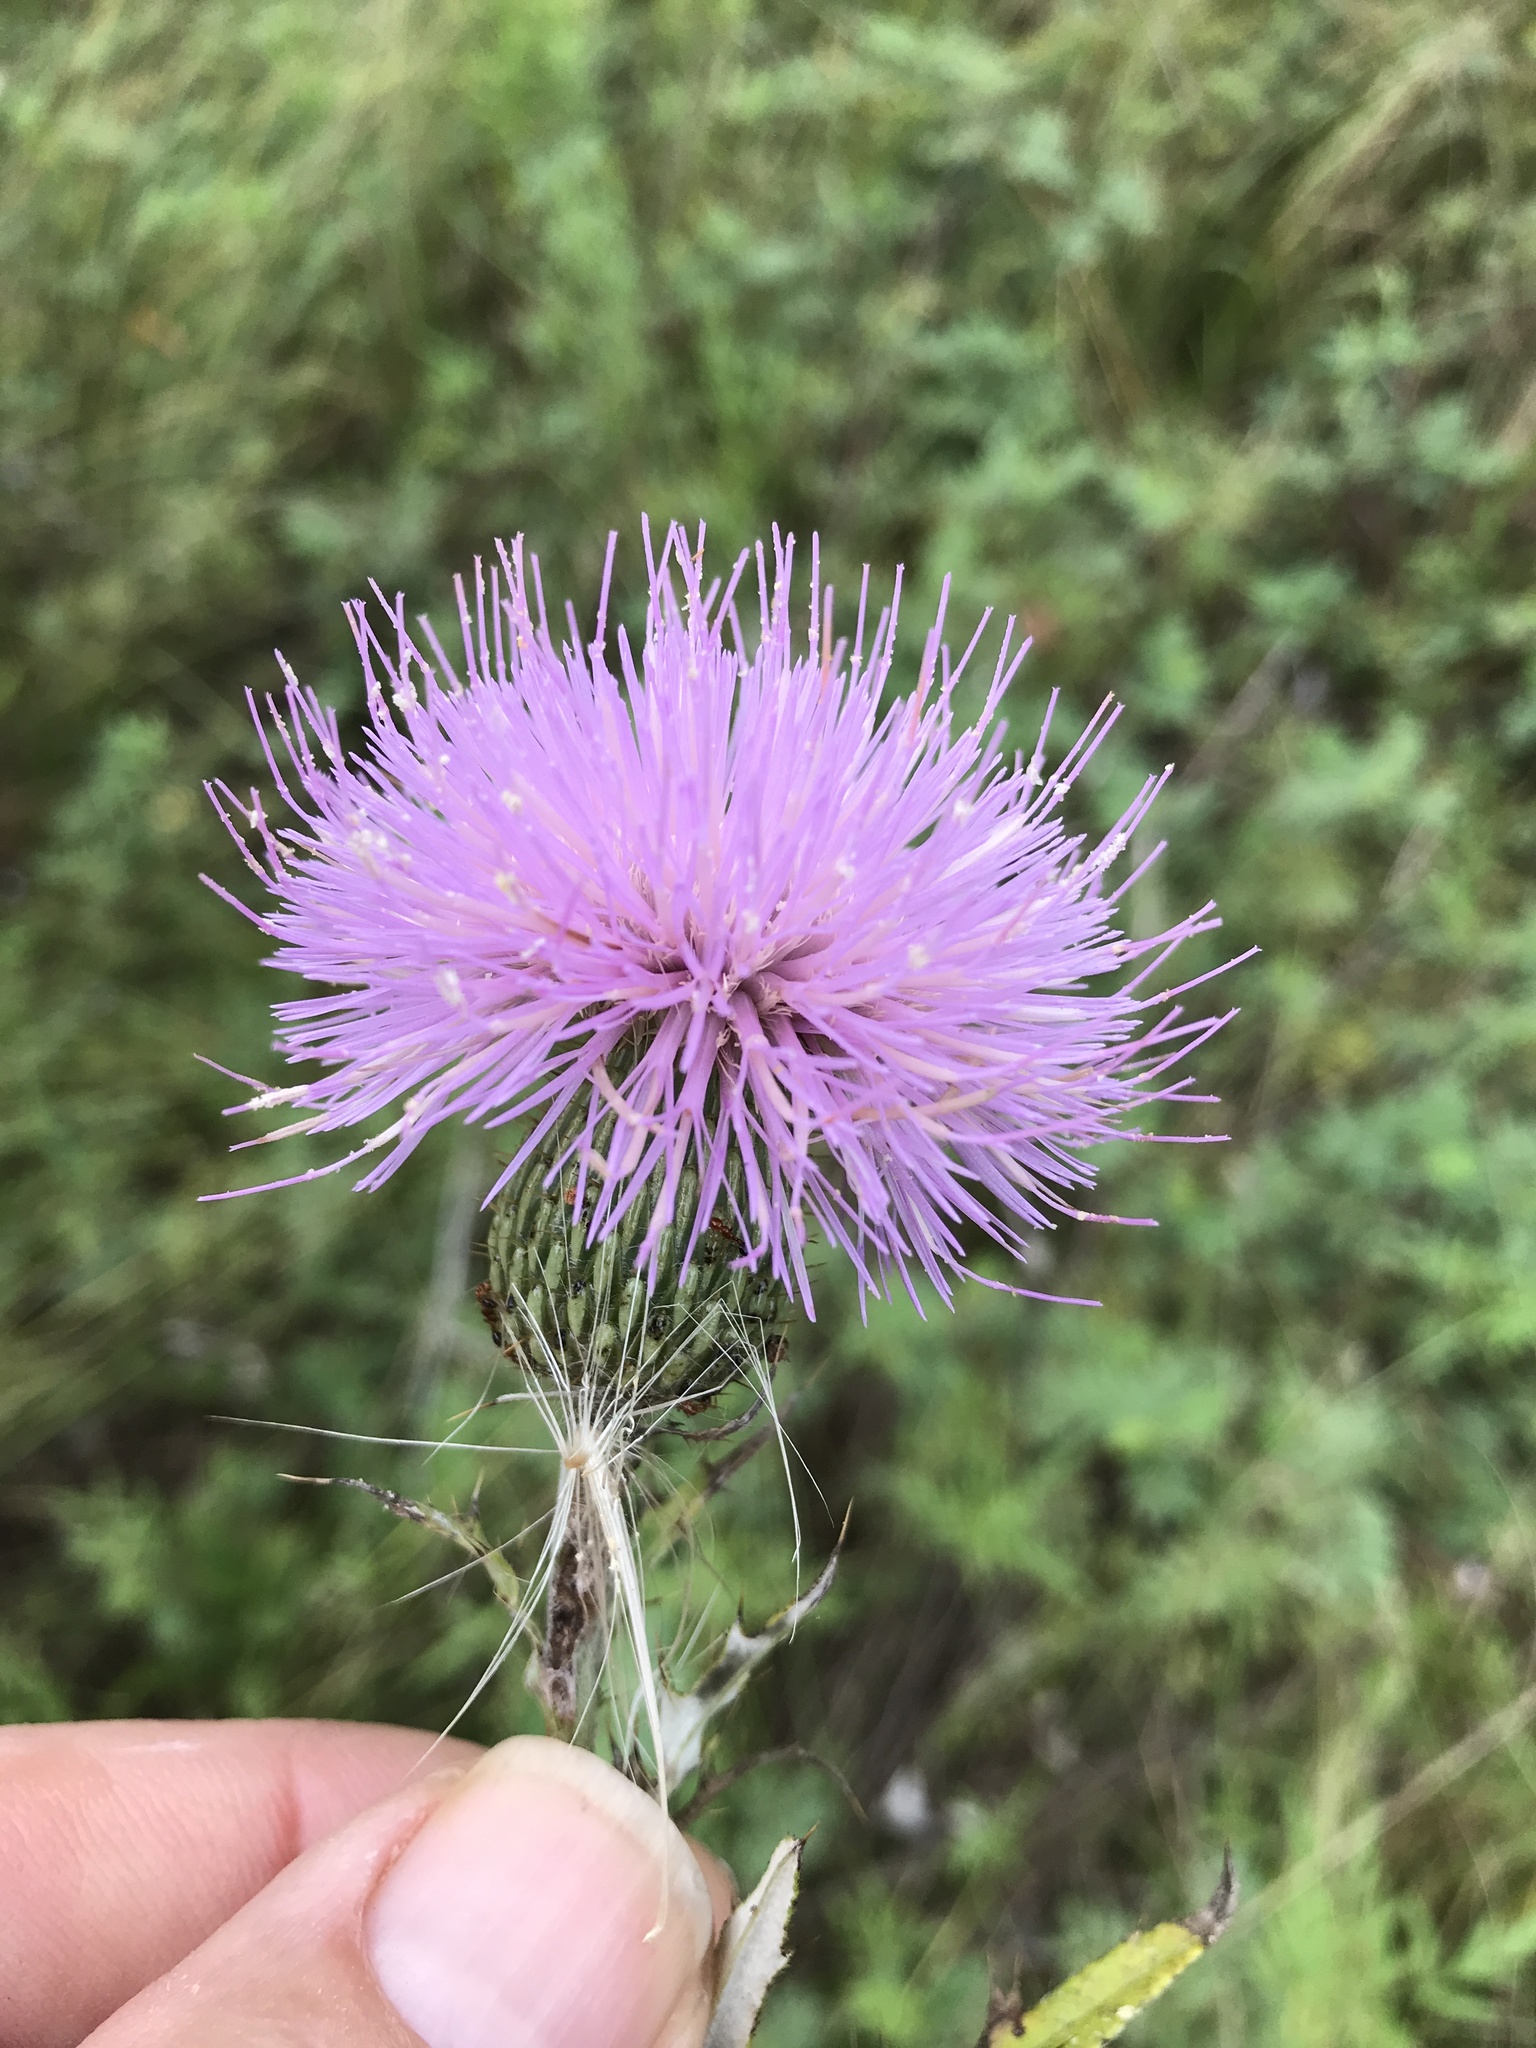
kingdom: Plantae
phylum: Tracheophyta
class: Magnoliopsida
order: Asterales
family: Asteraceae
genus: Cirsium
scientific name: Cirsium texanum
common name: Texas purple thistle
